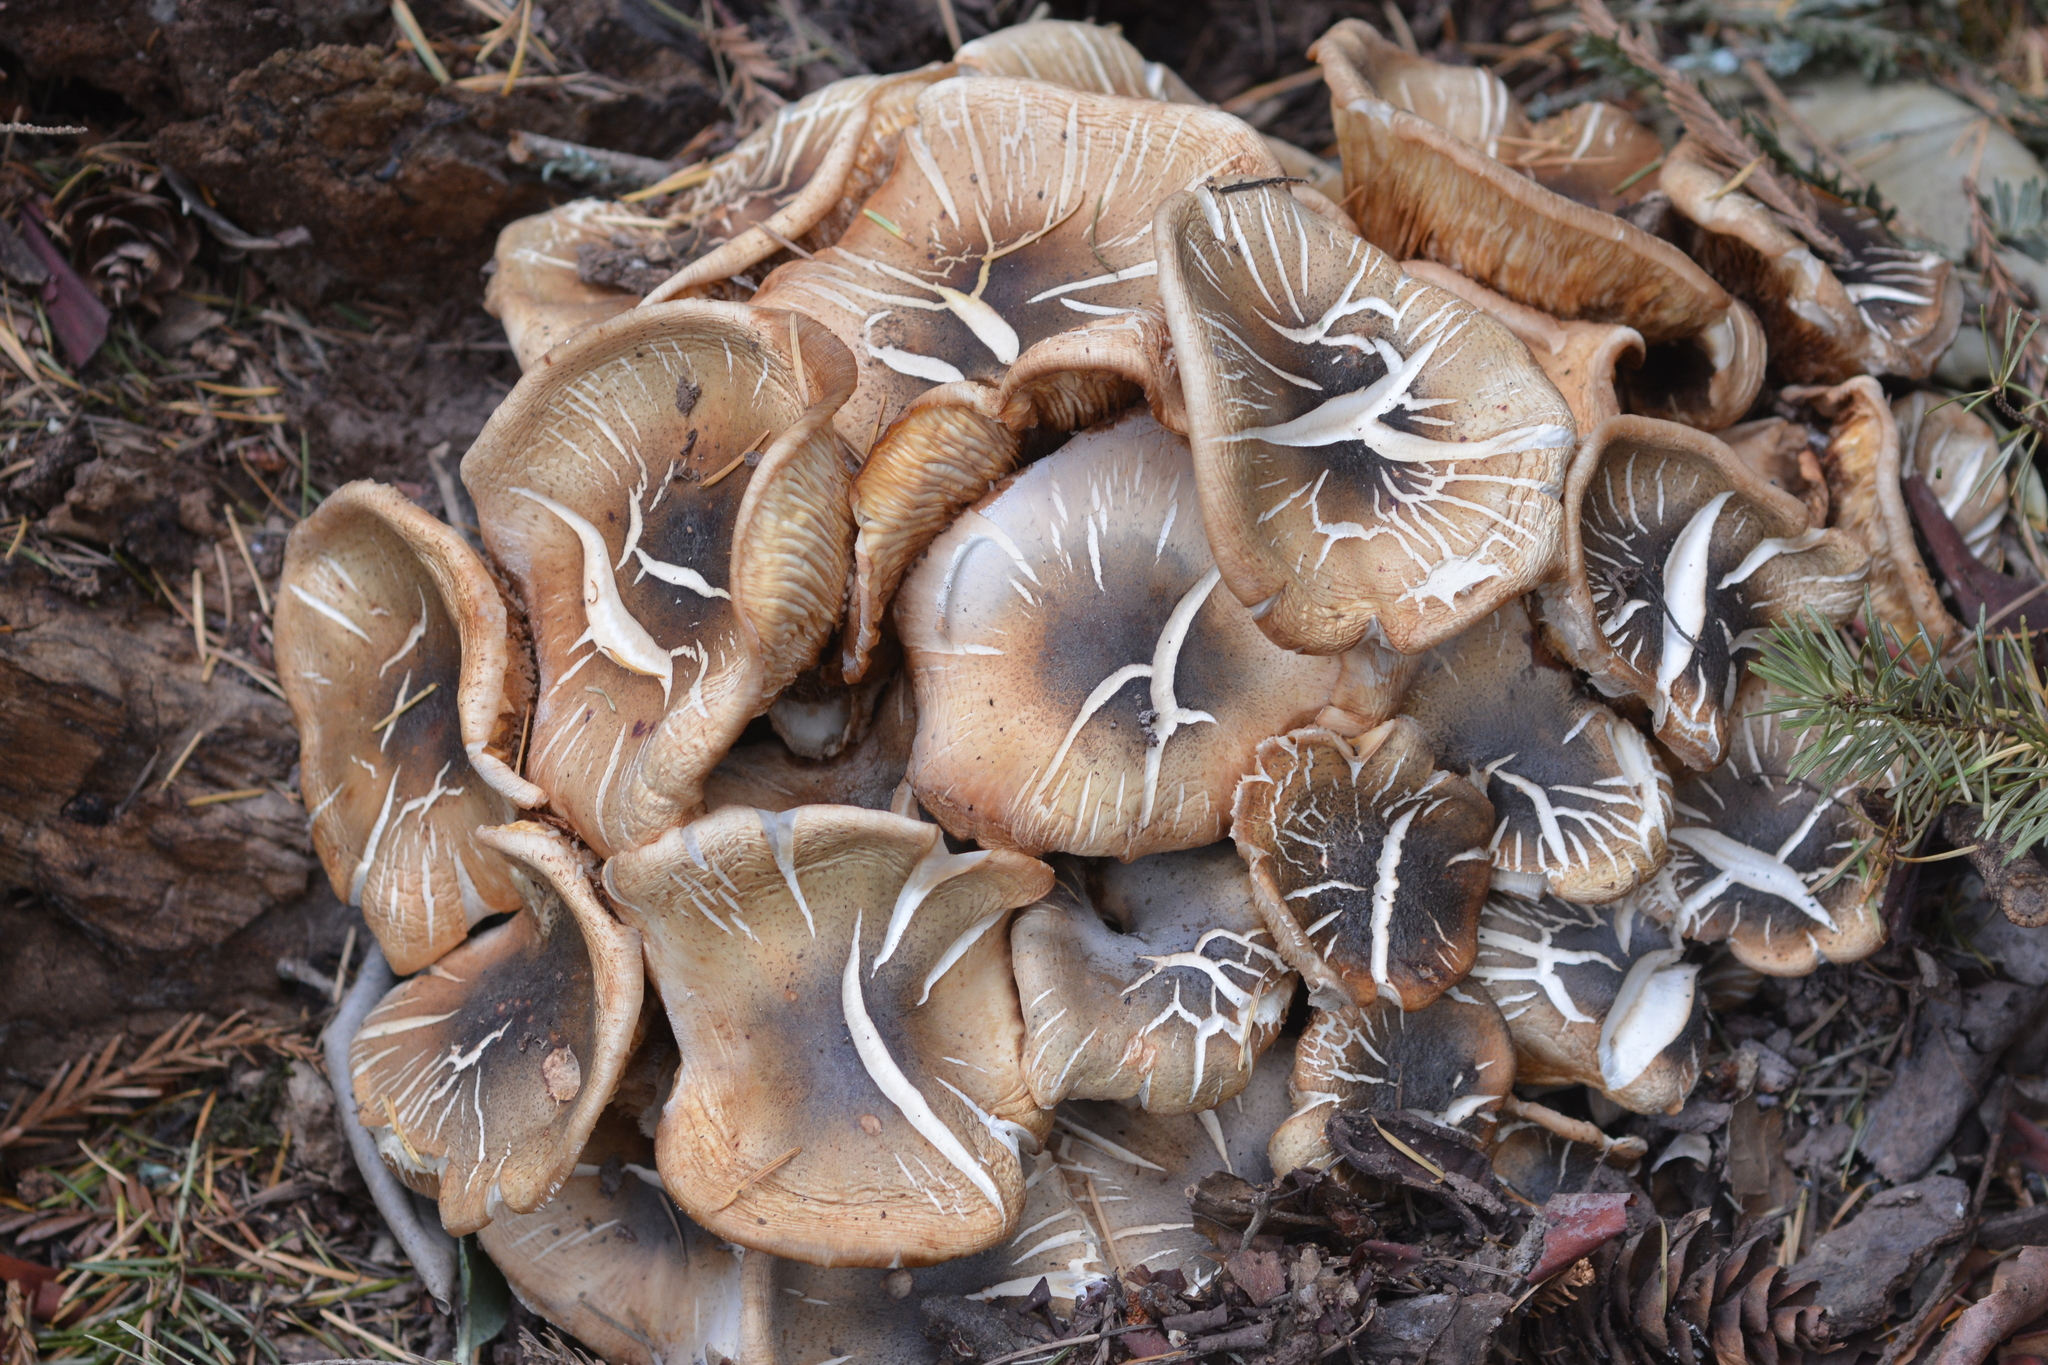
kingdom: Fungi
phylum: Basidiomycota
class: Agaricomycetes
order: Agaricales
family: Physalacriaceae
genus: Armillaria
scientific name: Armillaria mellea
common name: Honey fungus
